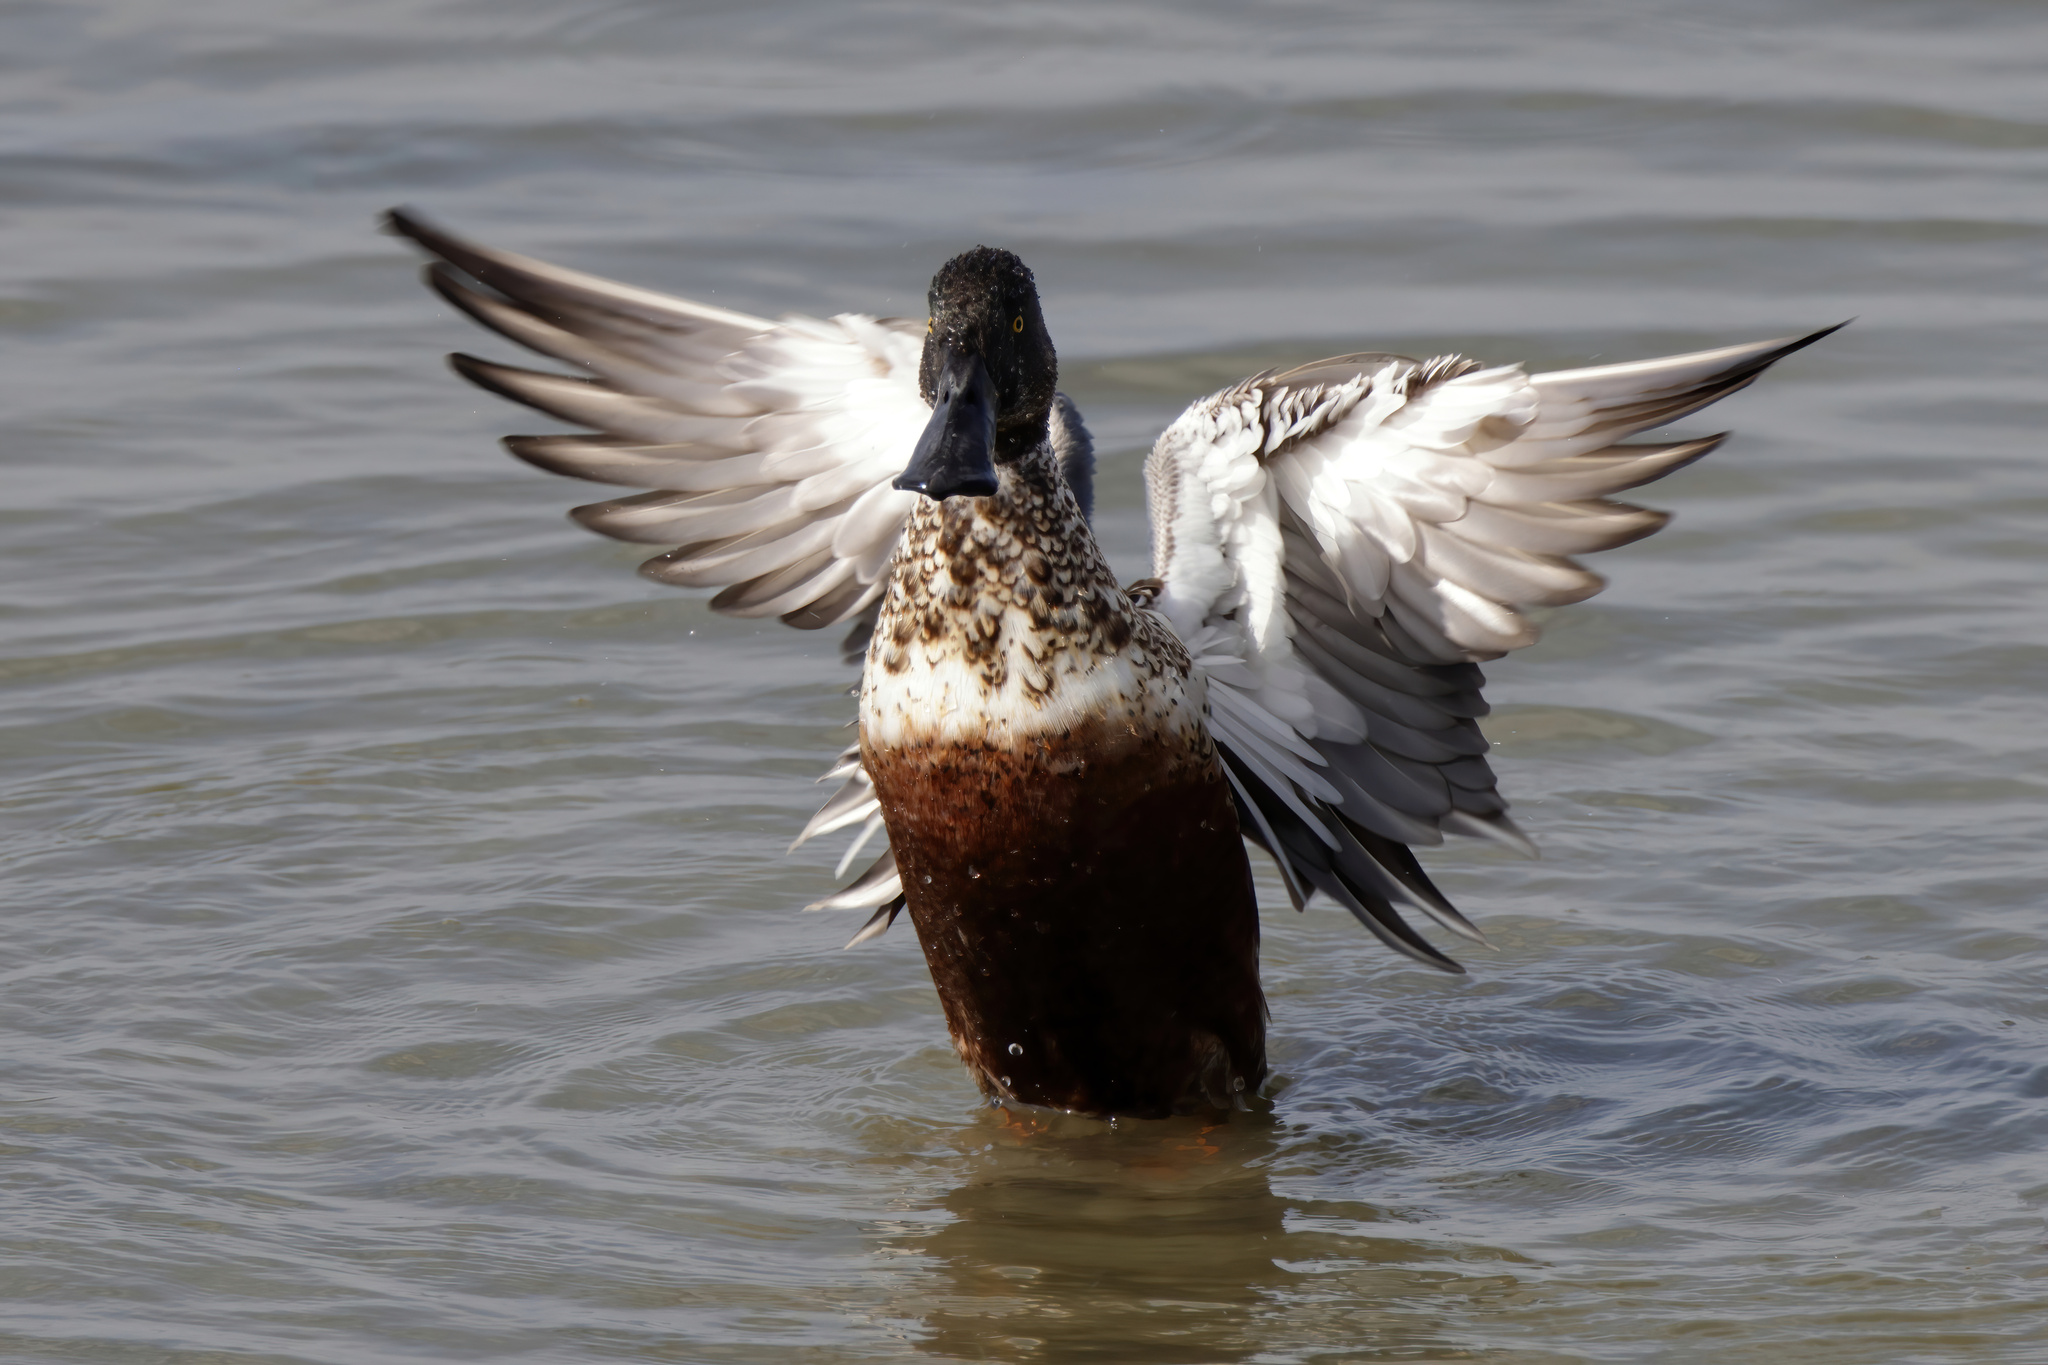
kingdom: Animalia
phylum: Chordata
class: Aves
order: Anseriformes
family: Anatidae
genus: Spatula
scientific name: Spatula clypeata
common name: Northern shoveler
